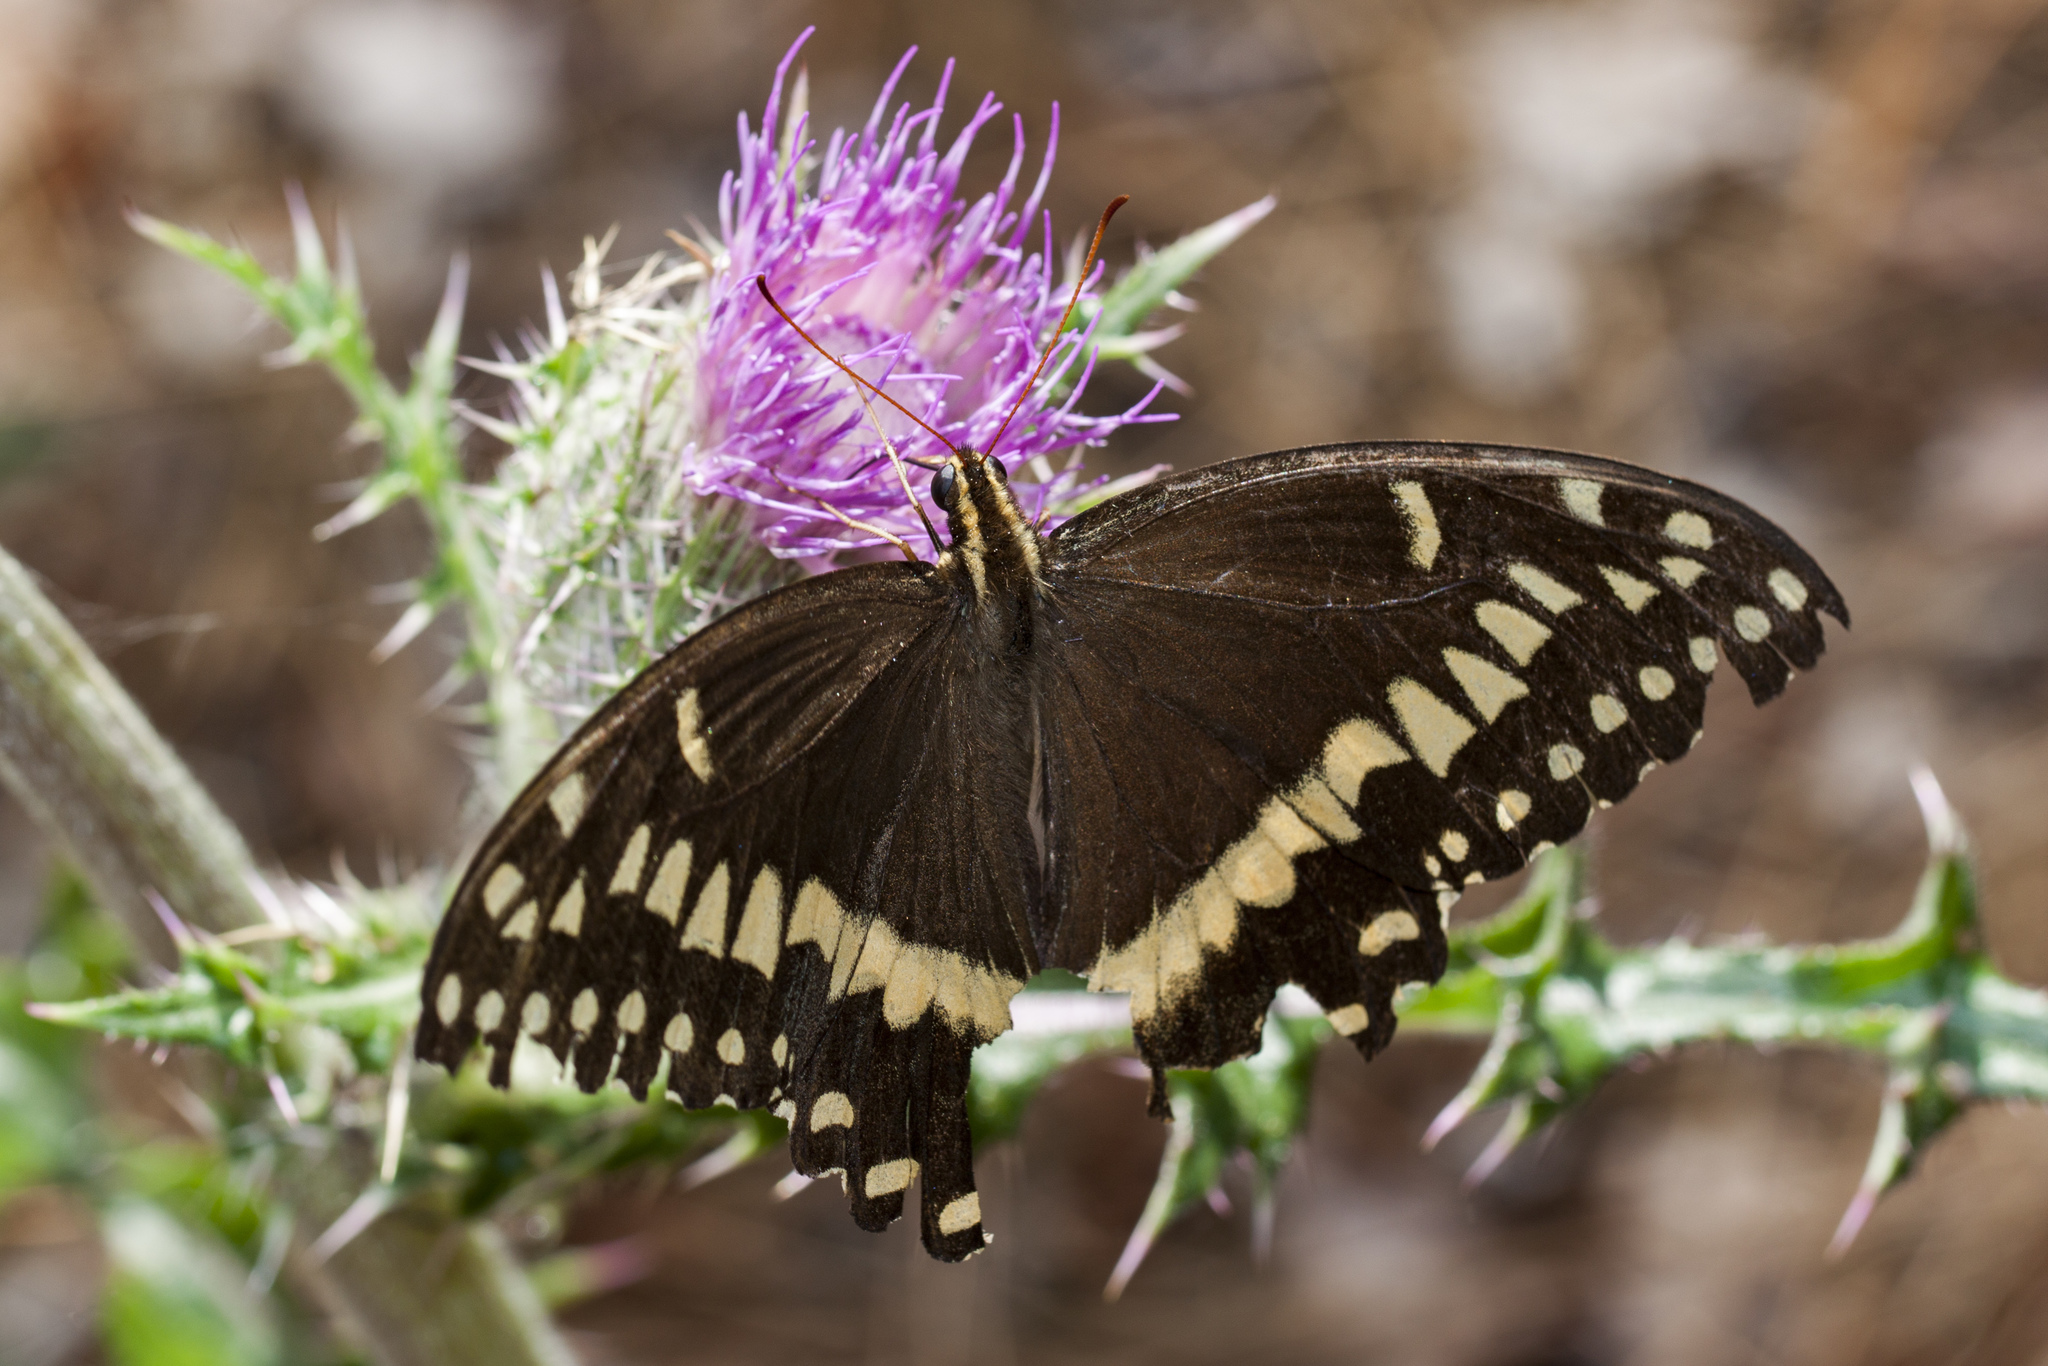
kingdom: Animalia
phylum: Arthropoda
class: Insecta
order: Lepidoptera
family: Papilionidae
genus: Papilio
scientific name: Papilio palamedes
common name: Palamedes swallowtail
